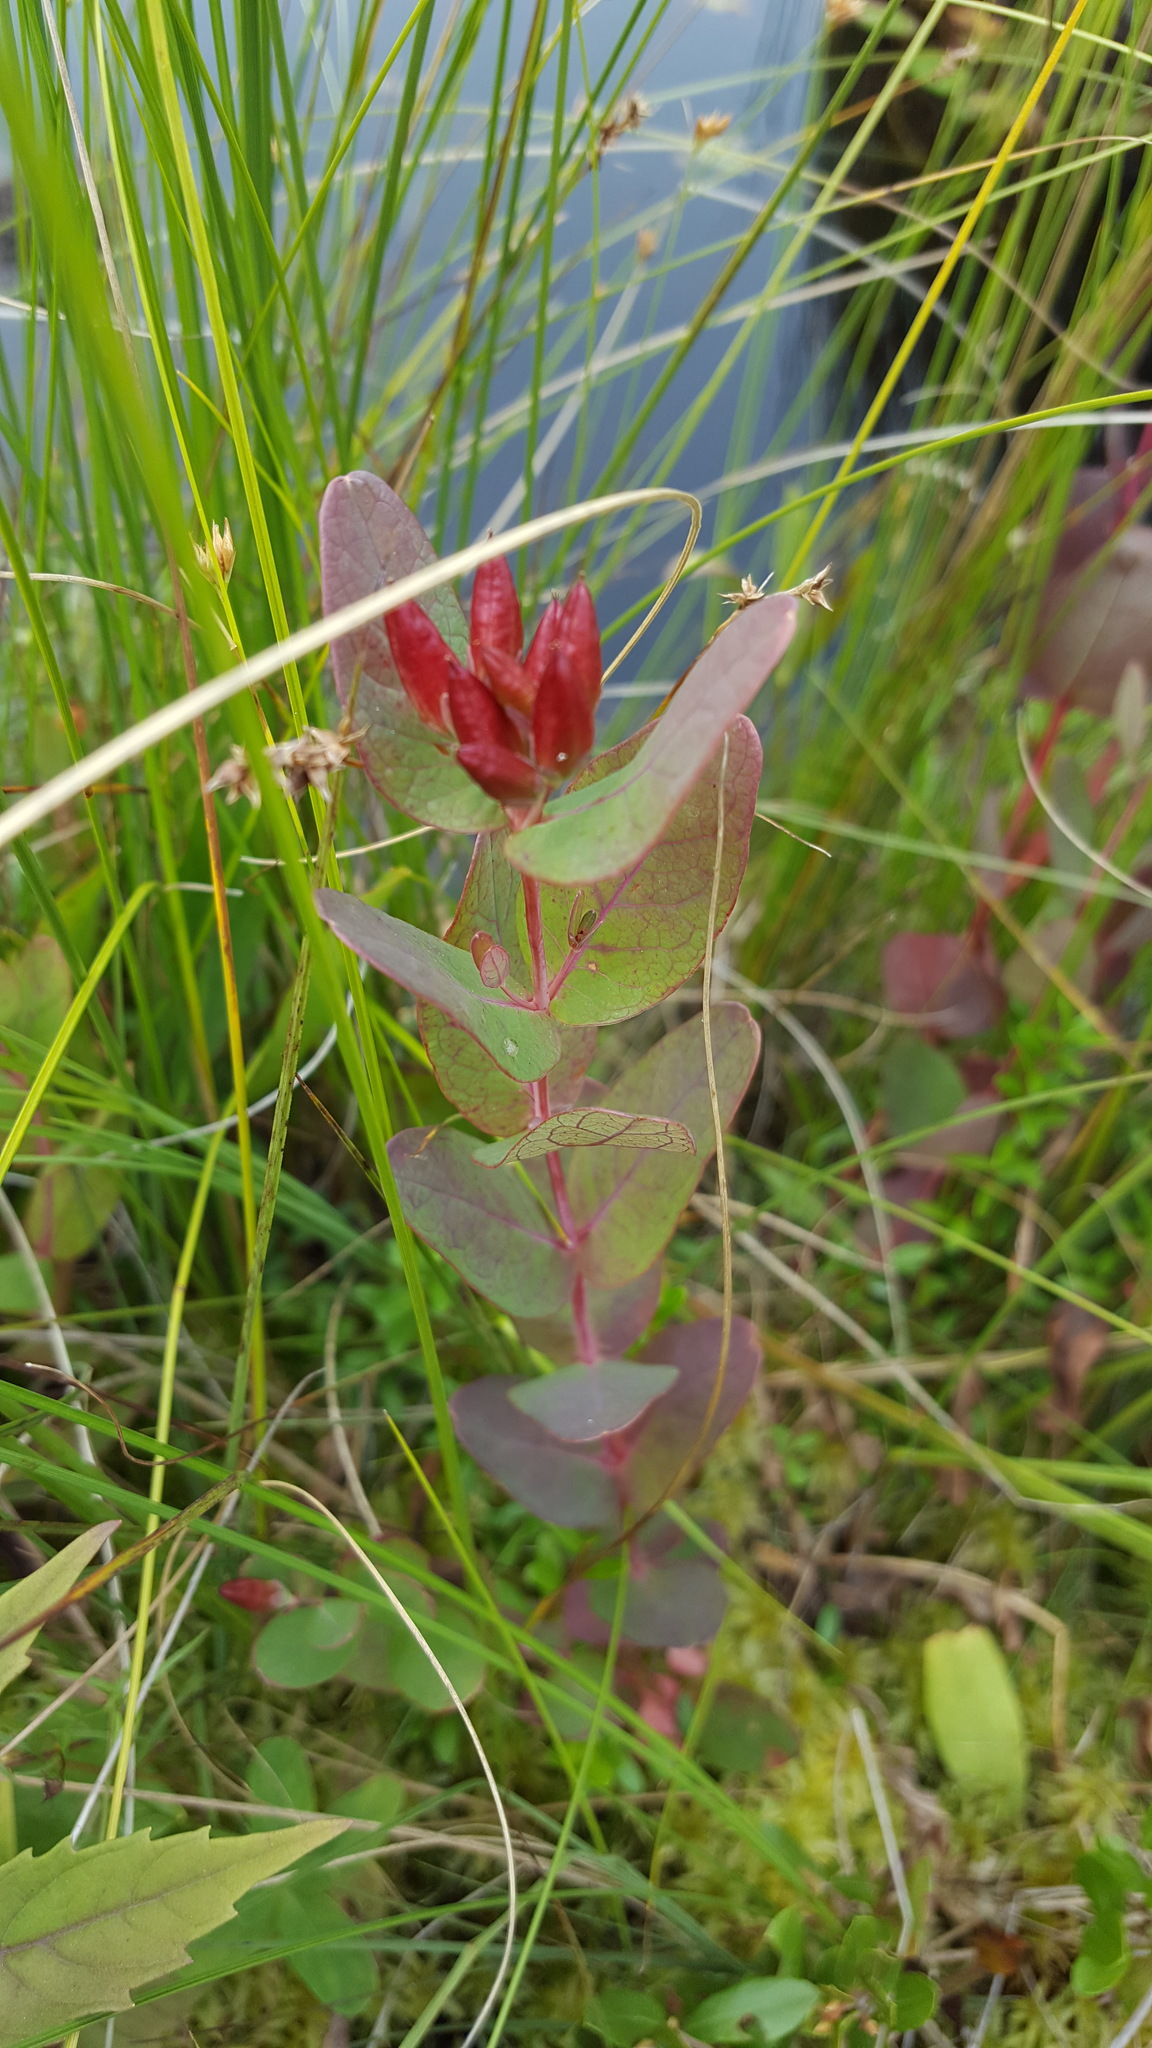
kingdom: Plantae
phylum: Tracheophyta
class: Magnoliopsida
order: Malpighiales
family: Hypericaceae
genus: Triadenum
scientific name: Triadenum fraseri
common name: Fraser's marsh st. johnswort
